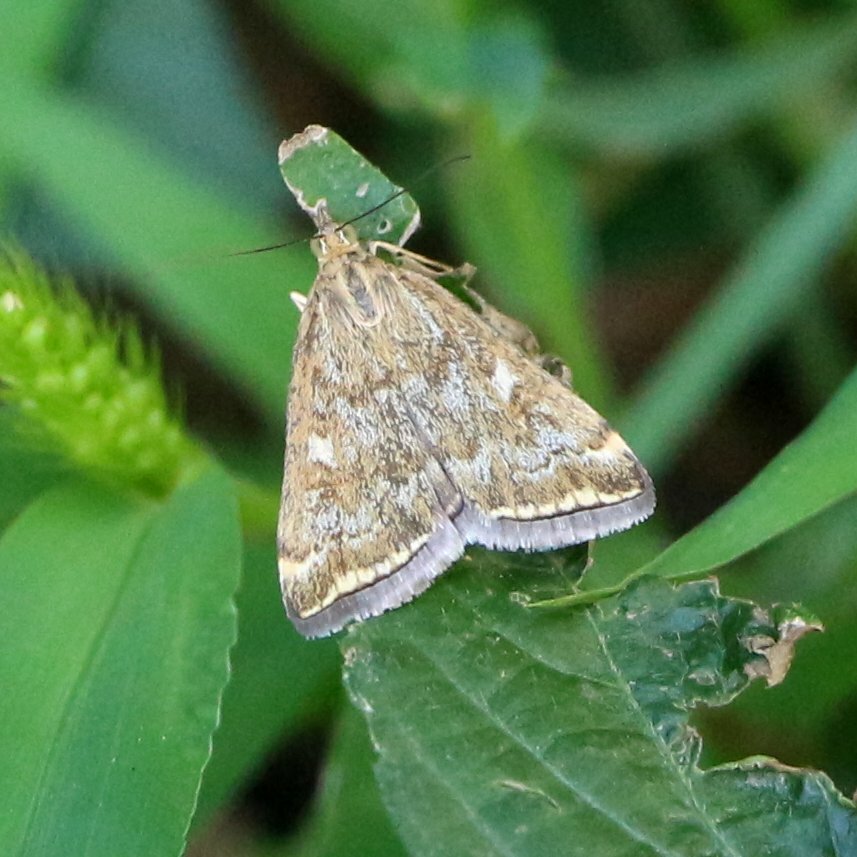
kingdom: Animalia
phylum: Arthropoda
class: Insecta
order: Lepidoptera
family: Crambidae
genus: Loxostege
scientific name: Loxostege sticticalis
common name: Crambid moth
